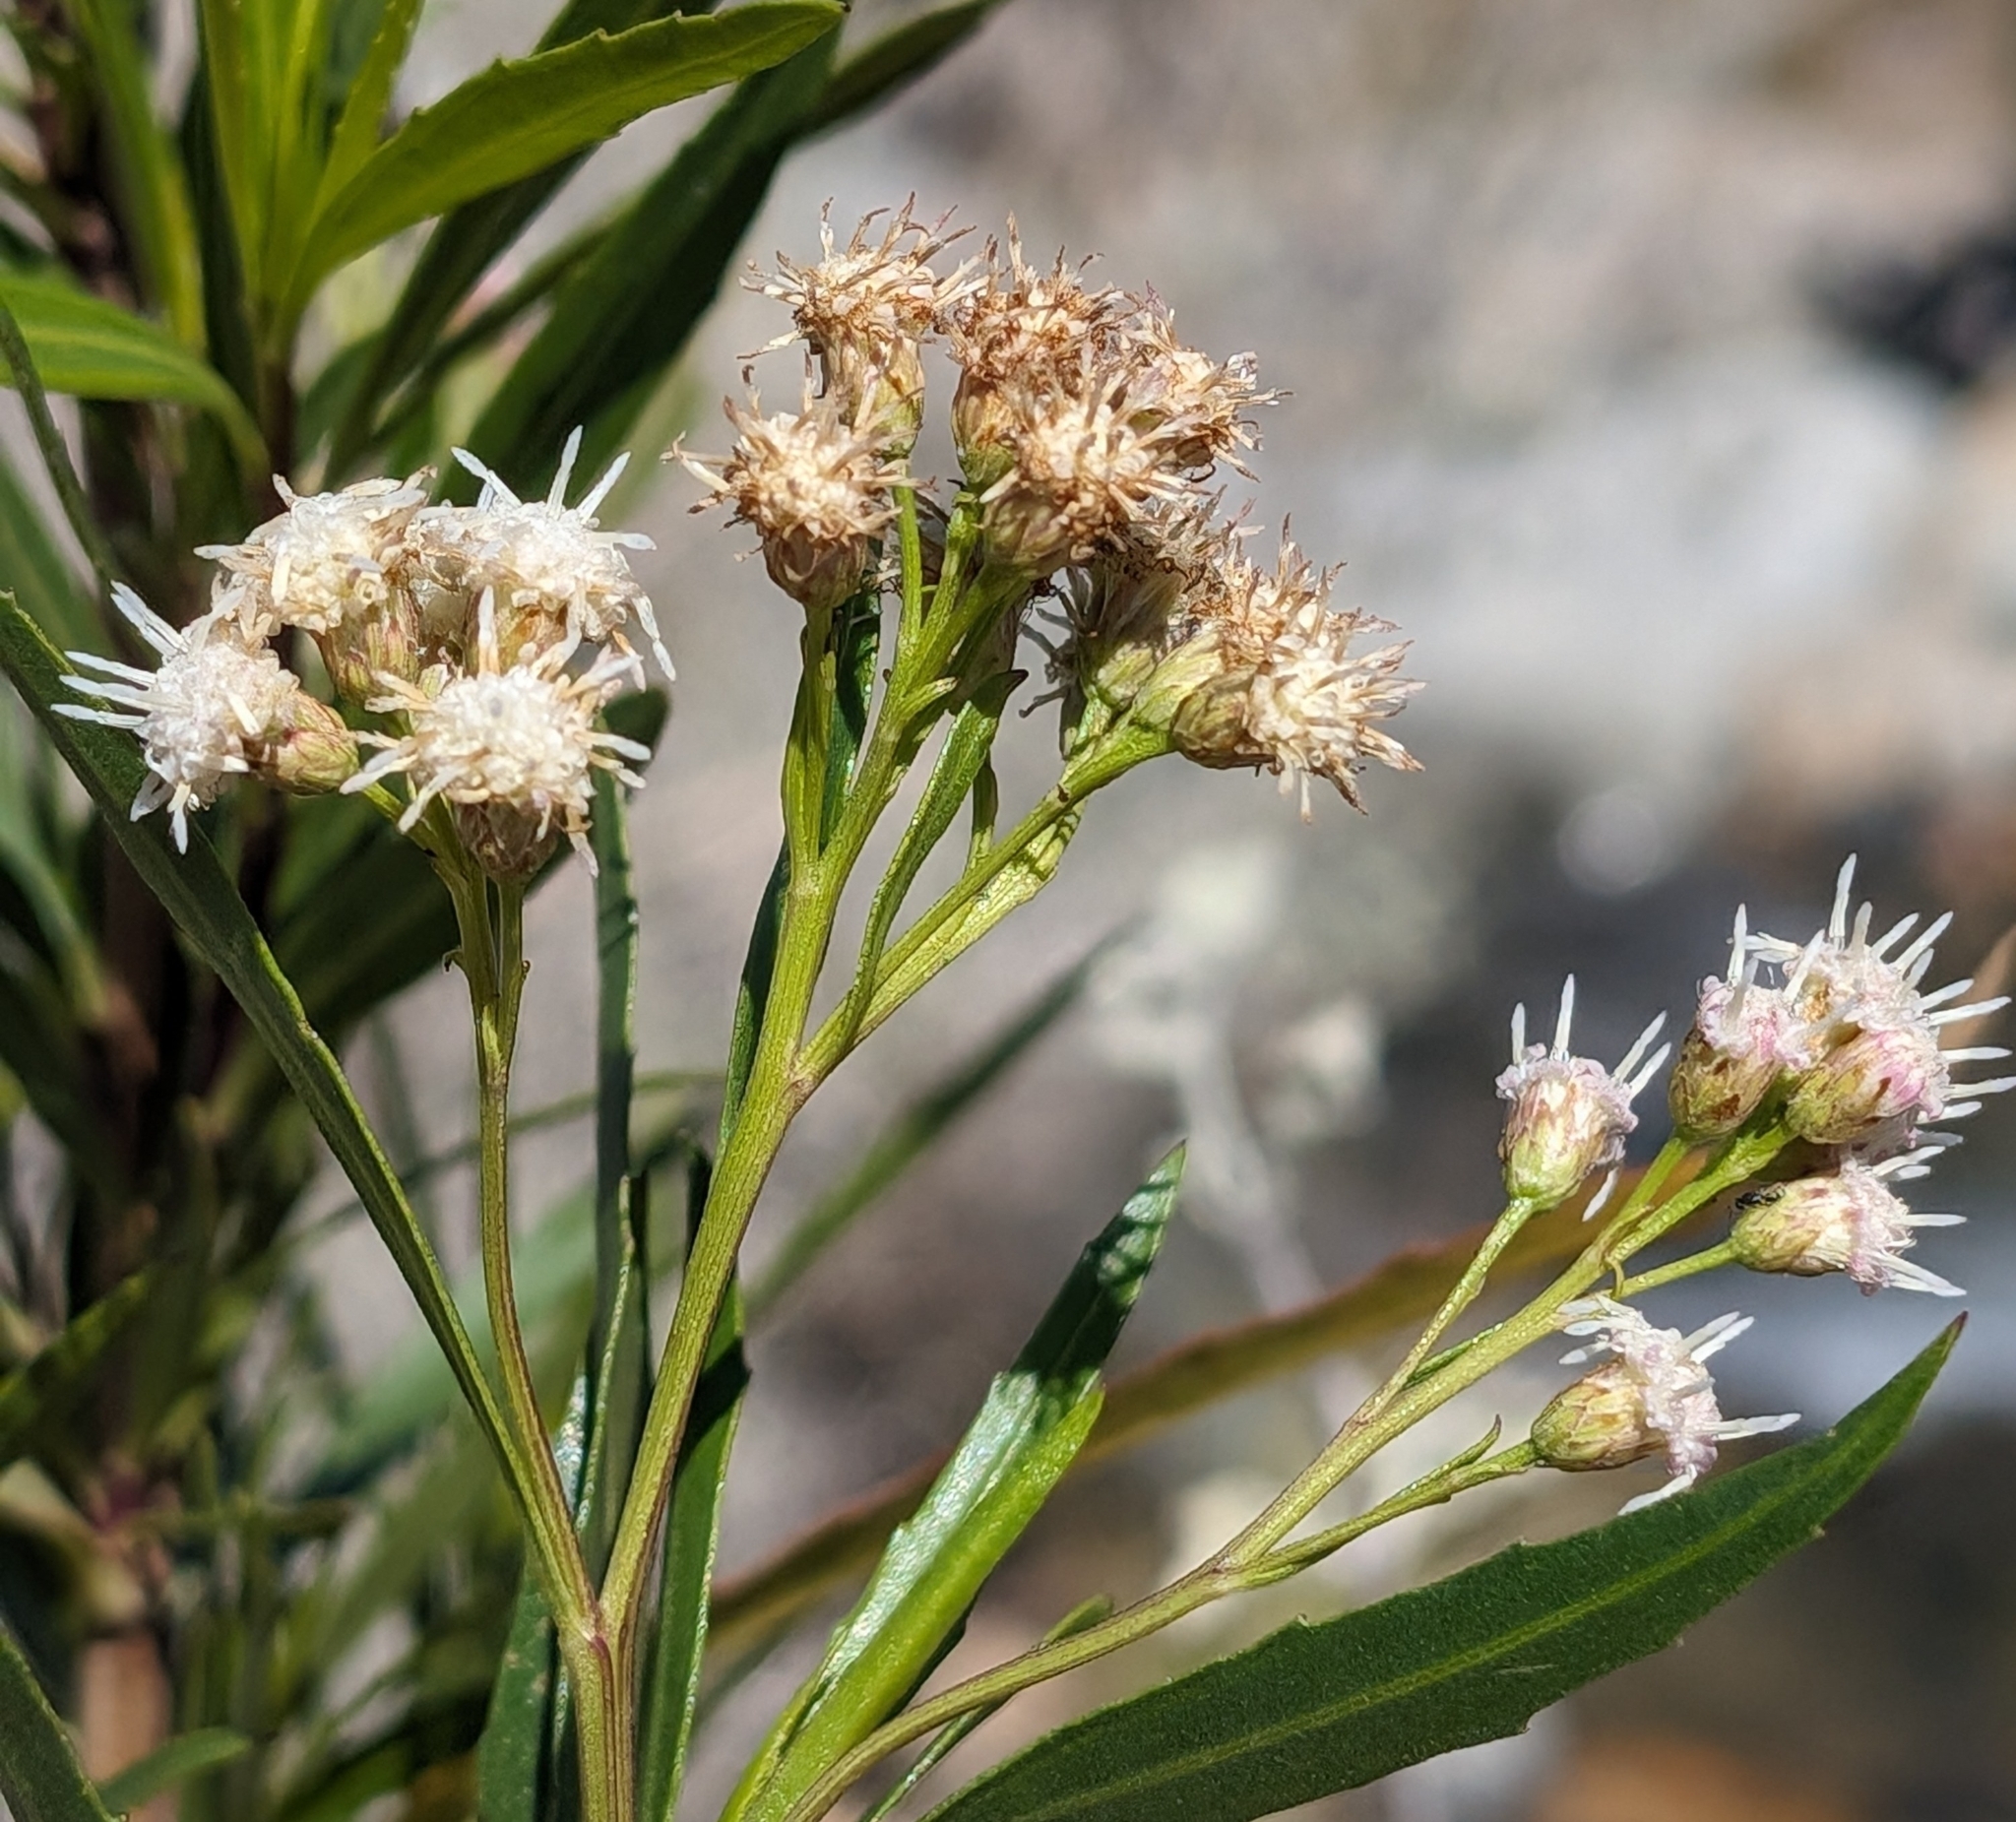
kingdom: Plantae
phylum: Tracheophyta
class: Magnoliopsida
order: Asterales
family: Asteraceae
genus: Baccharis
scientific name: Baccharis salicifolia
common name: Sticky baccharis
